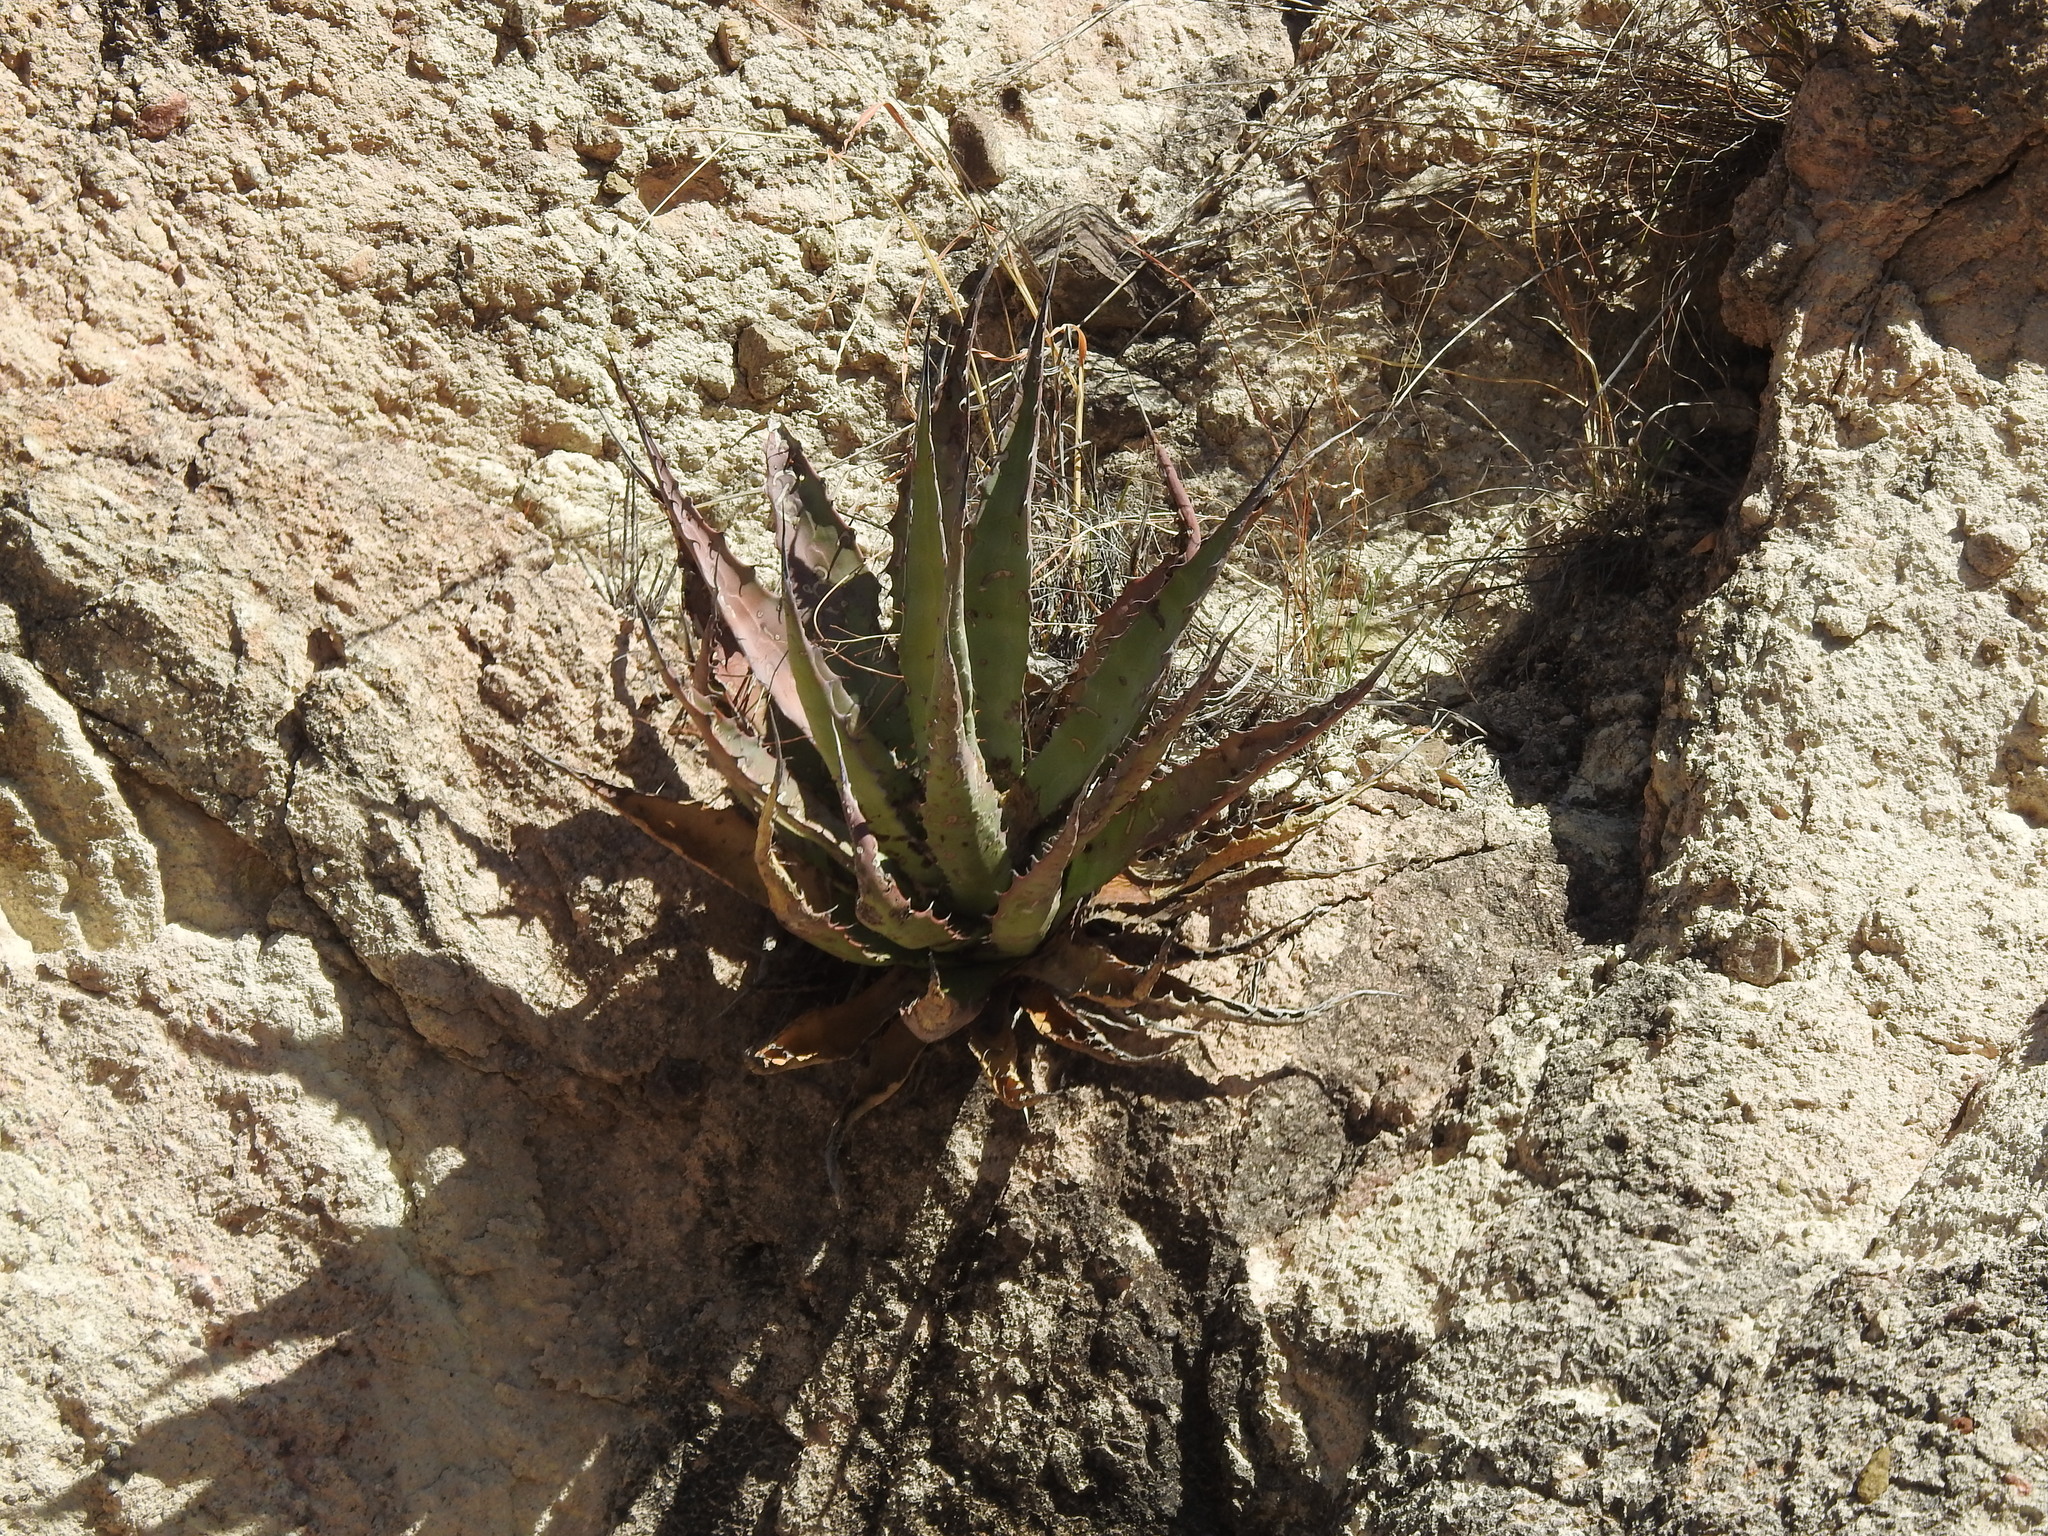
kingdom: Plantae
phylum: Tracheophyta
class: Liliopsida
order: Asparagales
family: Asparagaceae
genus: Agave
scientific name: Agave palmeri
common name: Palmer agave
